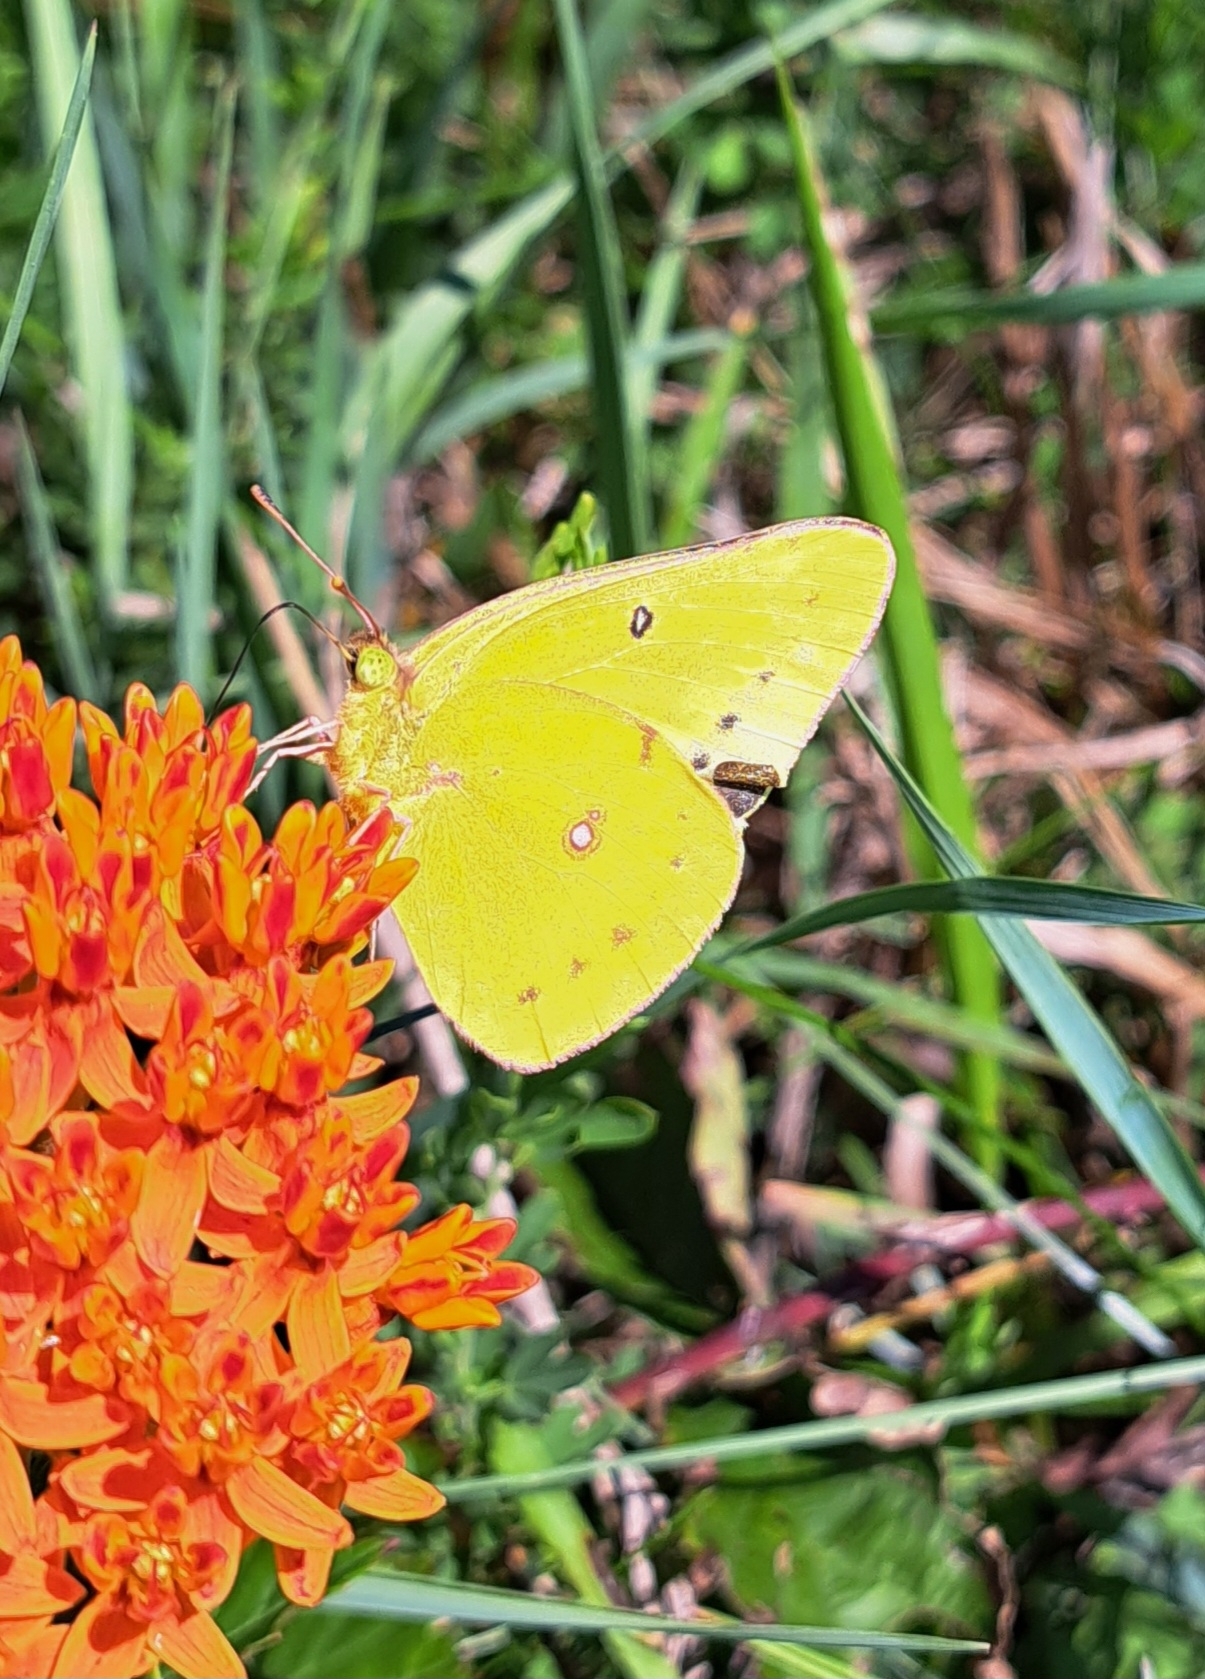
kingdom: Animalia
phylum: Arthropoda
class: Insecta
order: Lepidoptera
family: Pieridae
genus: Colias
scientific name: Colias eurytheme
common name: Alfalfa butterfly
